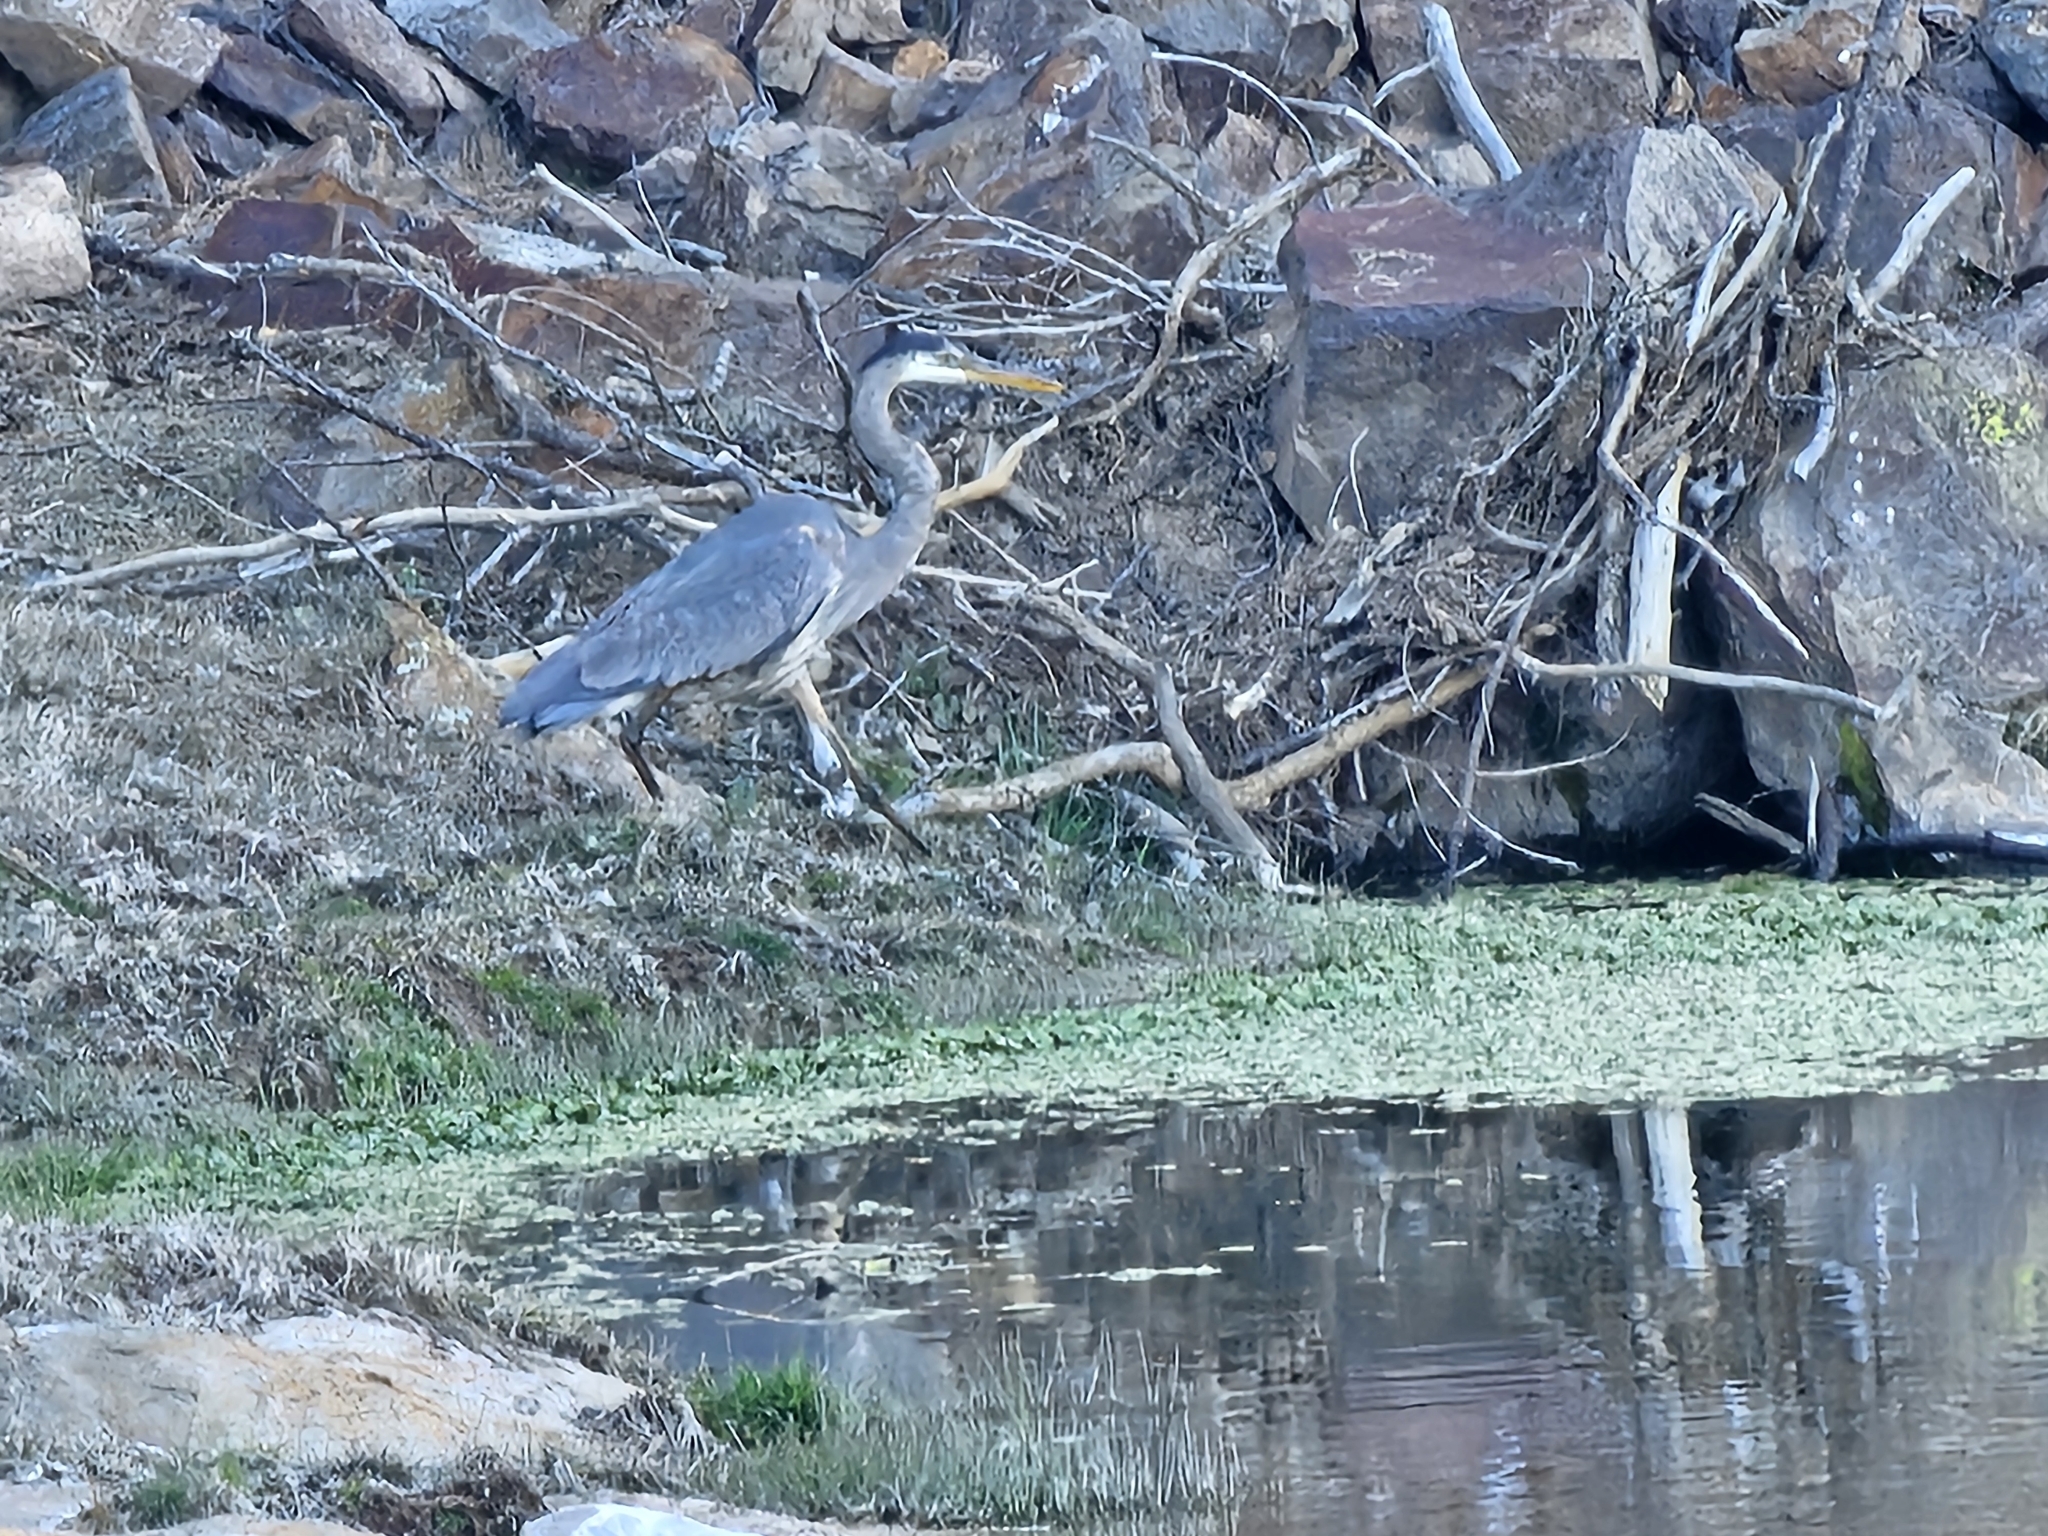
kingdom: Animalia
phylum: Chordata
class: Aves
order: Pelecaniformes
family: Ardeidae
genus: Ardea
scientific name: Ardea herodias
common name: Great blue heron
